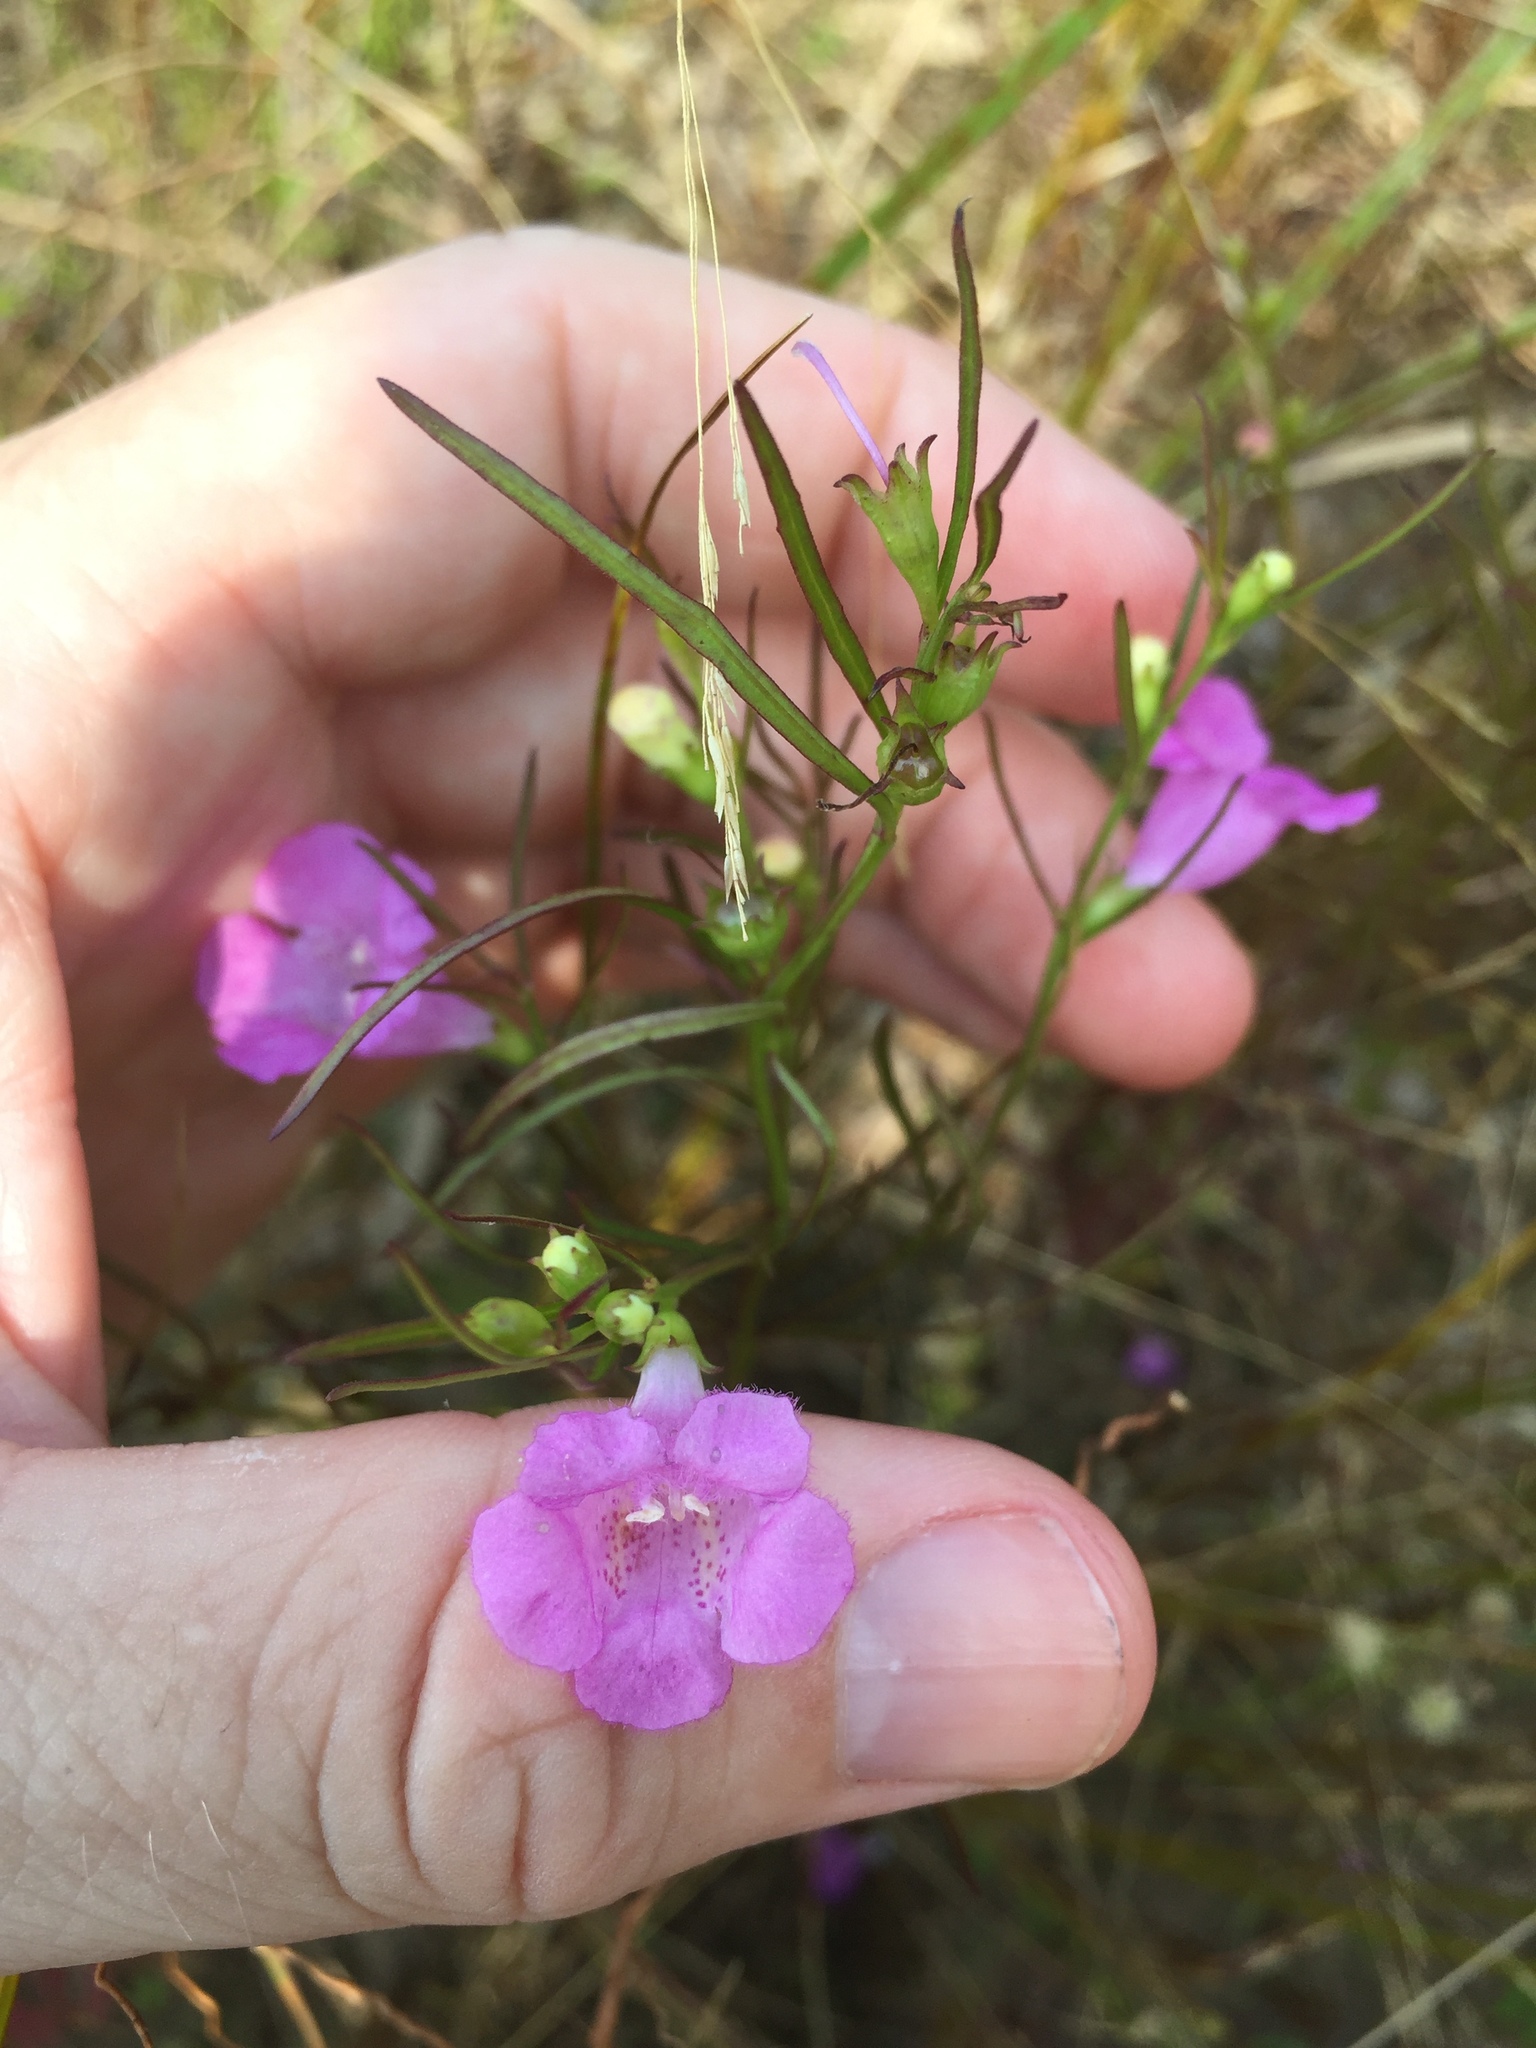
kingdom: Plantae
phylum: Tracheophyta
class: Magnoliopsida
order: Lamiales
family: Orobanchaceae
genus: Agalinis
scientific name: Agalinis purpurea
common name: Purple false foxglove
